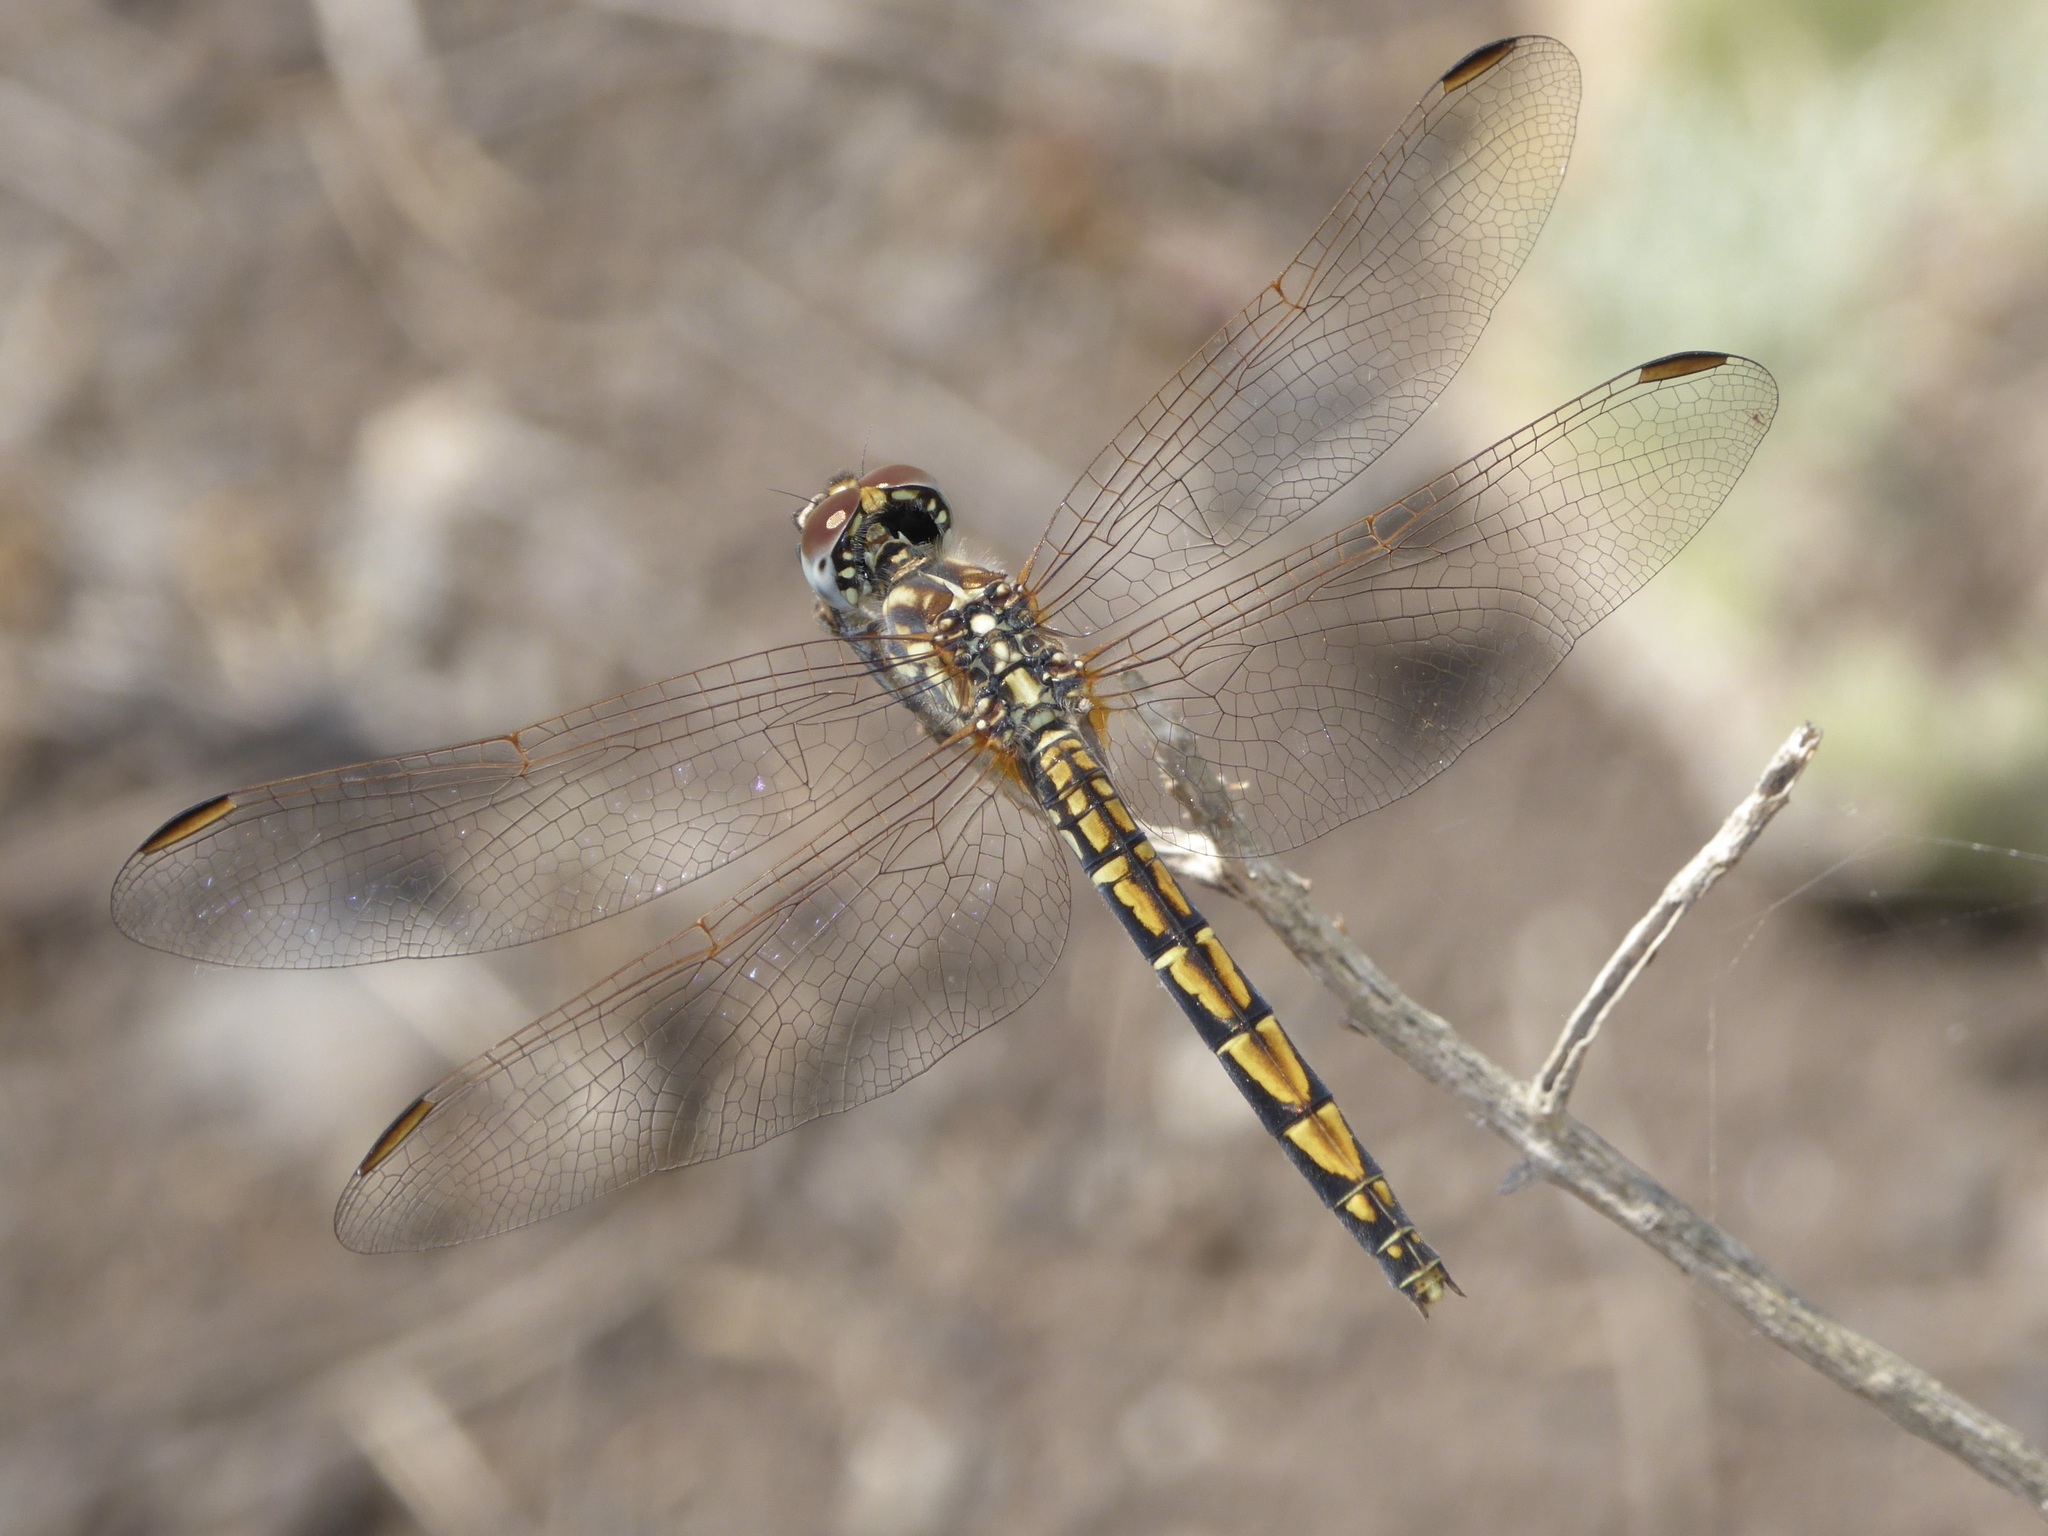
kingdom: Animalia
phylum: Arthropoda
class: Insecta
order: Odonata
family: Libellulidae
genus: Trithemis
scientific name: Trithemis arteriosa
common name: Red-veined dropwing
